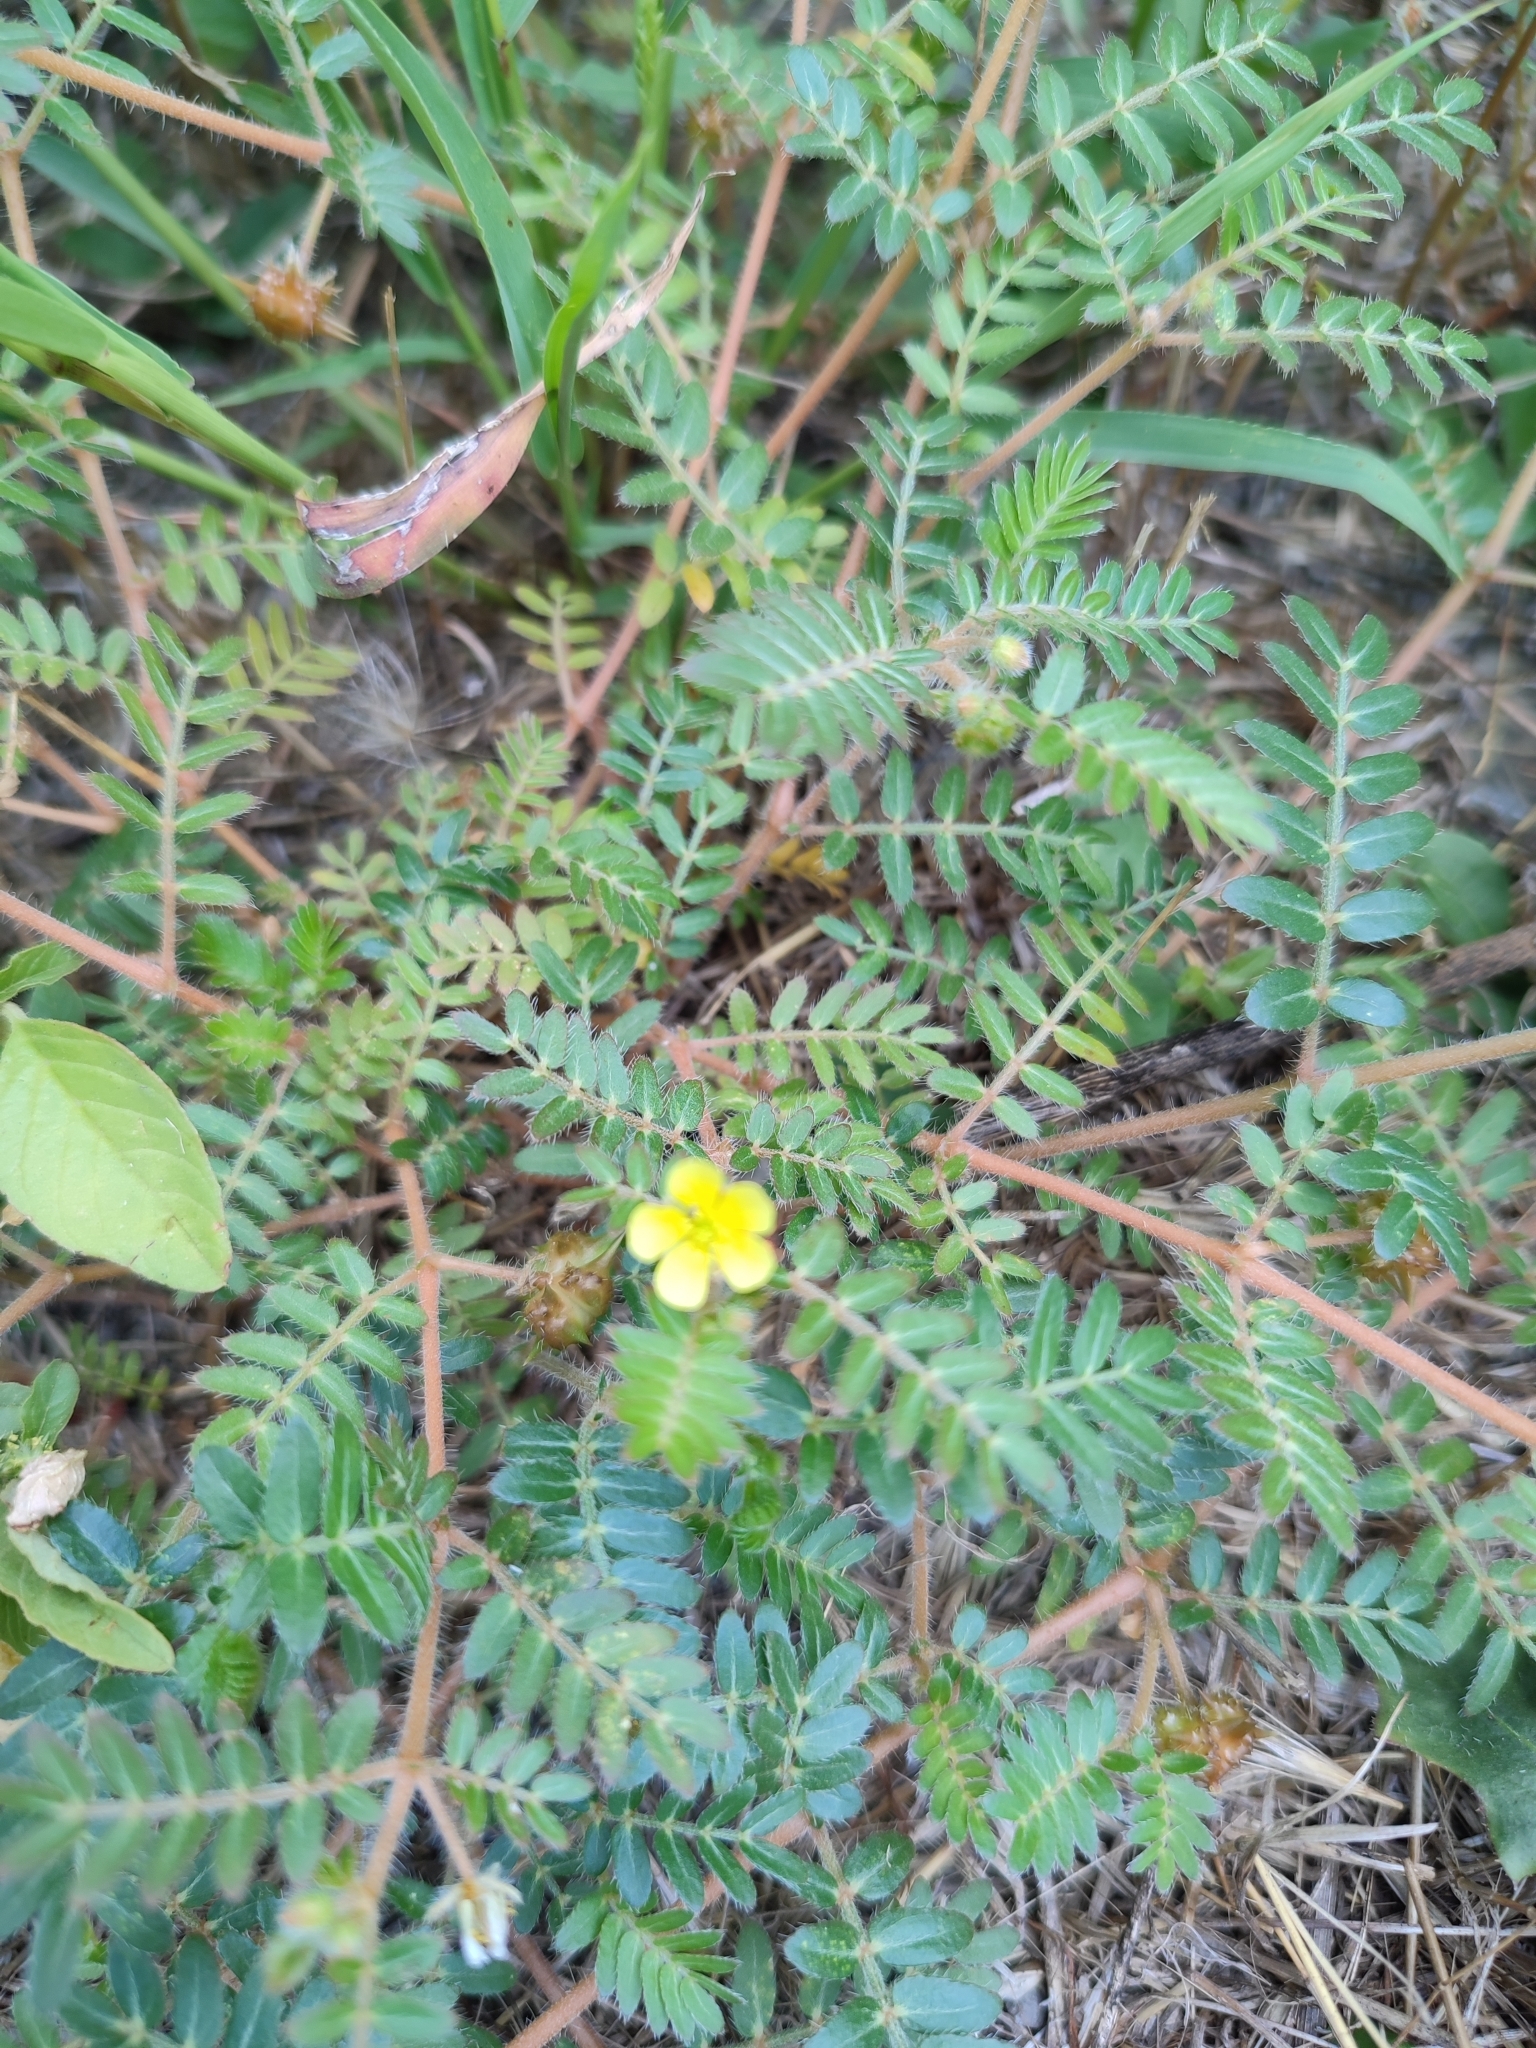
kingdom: Plantae
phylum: Tracheophyta
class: Magnoliopsida
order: Zygophyllales
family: Zygophyllaceae
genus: Tribulus
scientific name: Tribulus terrestris
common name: Puncturevine
